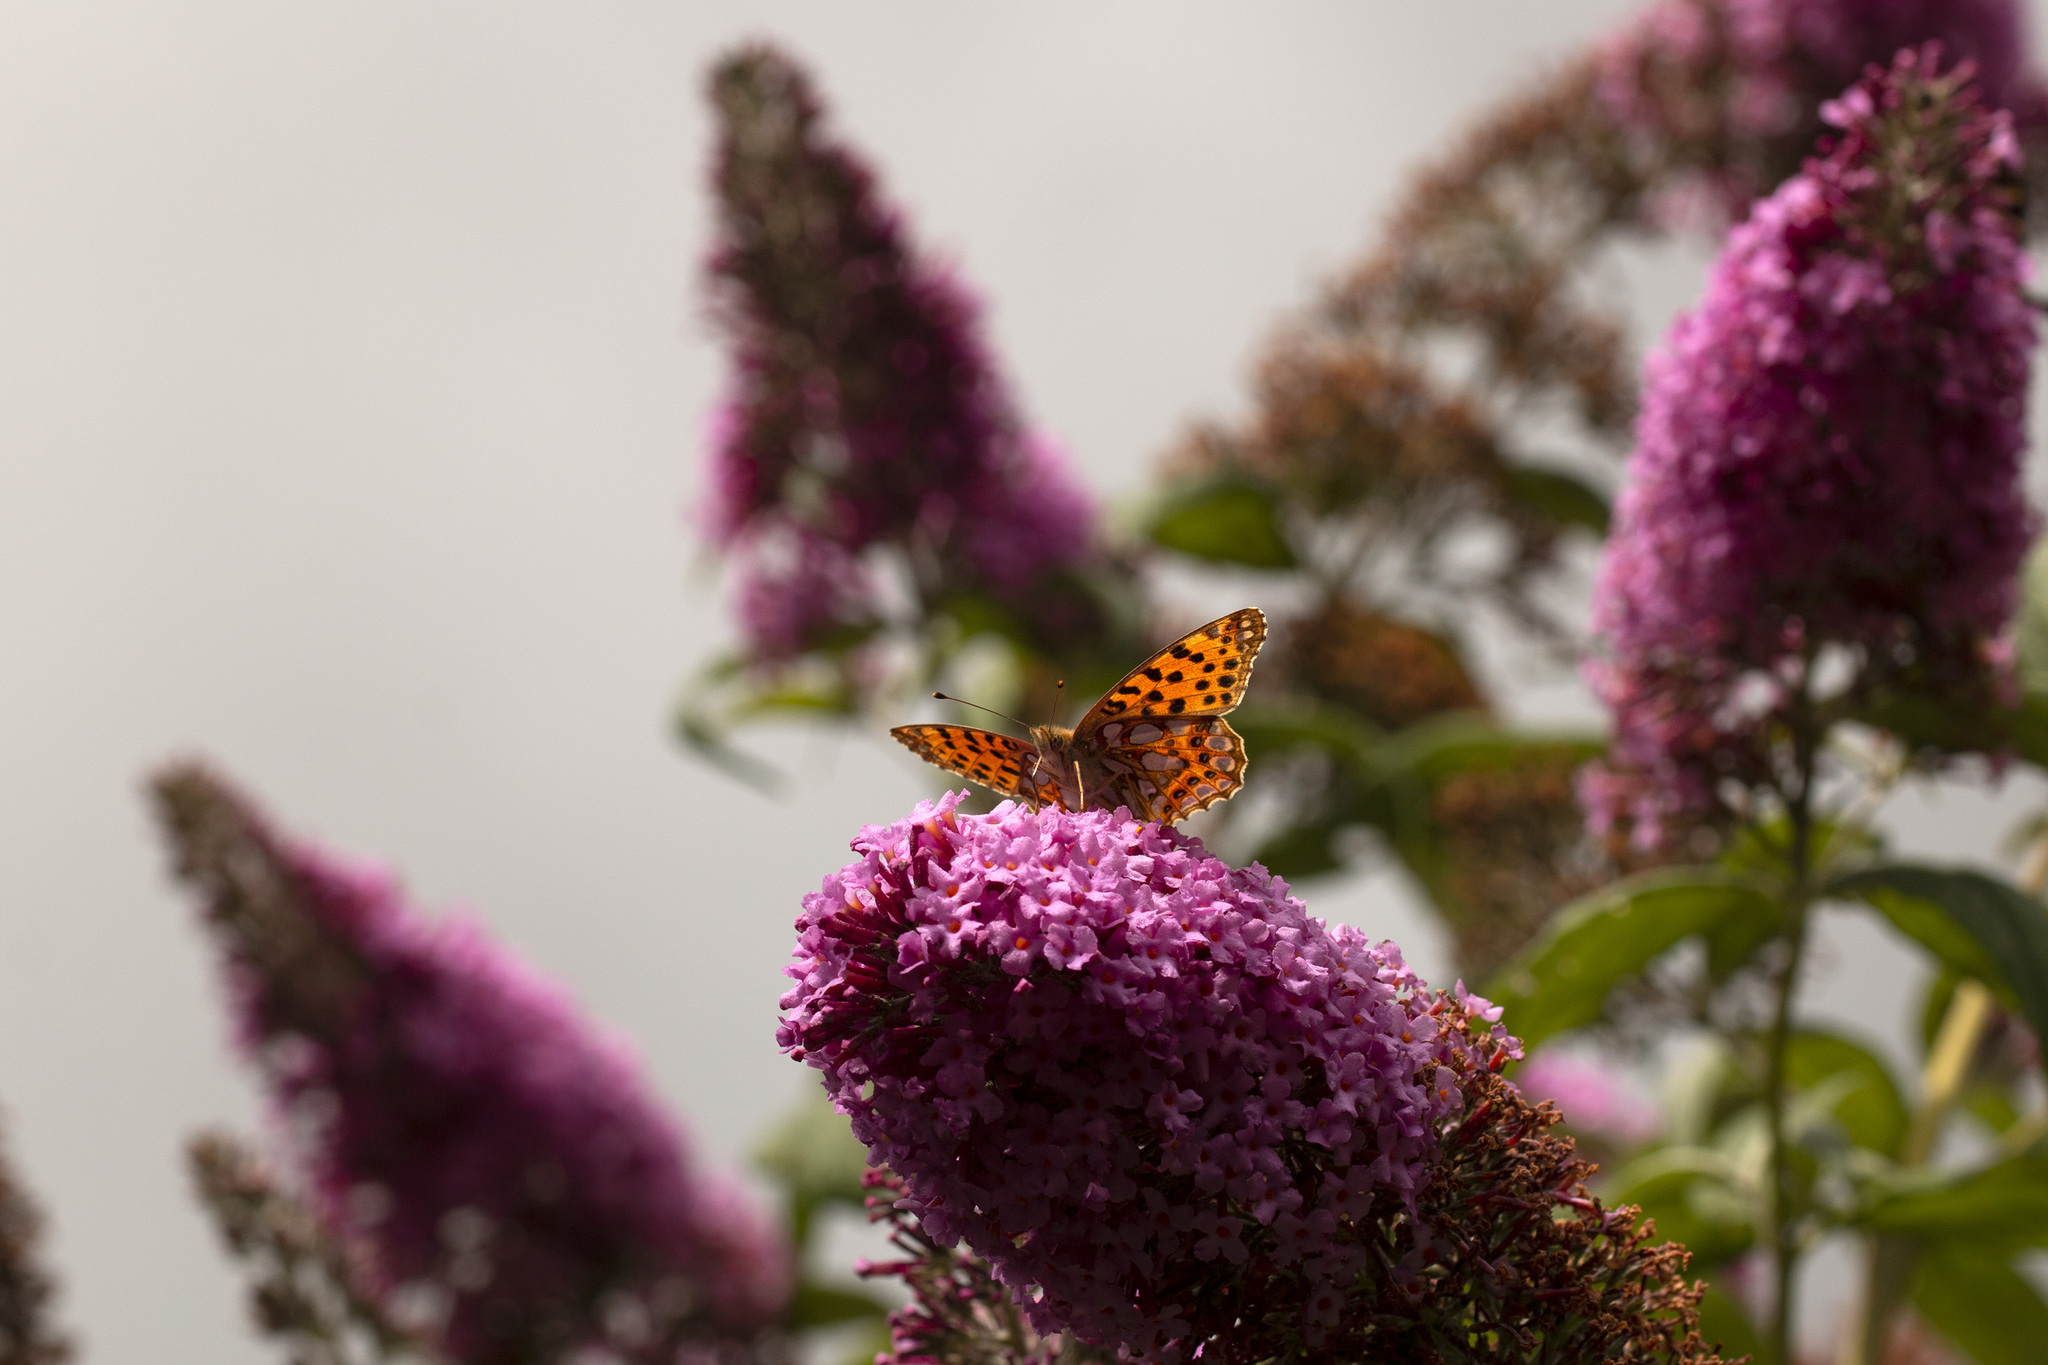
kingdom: Animalia
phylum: Arthropoda
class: Insecta
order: Lepidoptera
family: Nymphalidae
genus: Issoria
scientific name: Issoria lathonia
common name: Queen of spain fritillary
